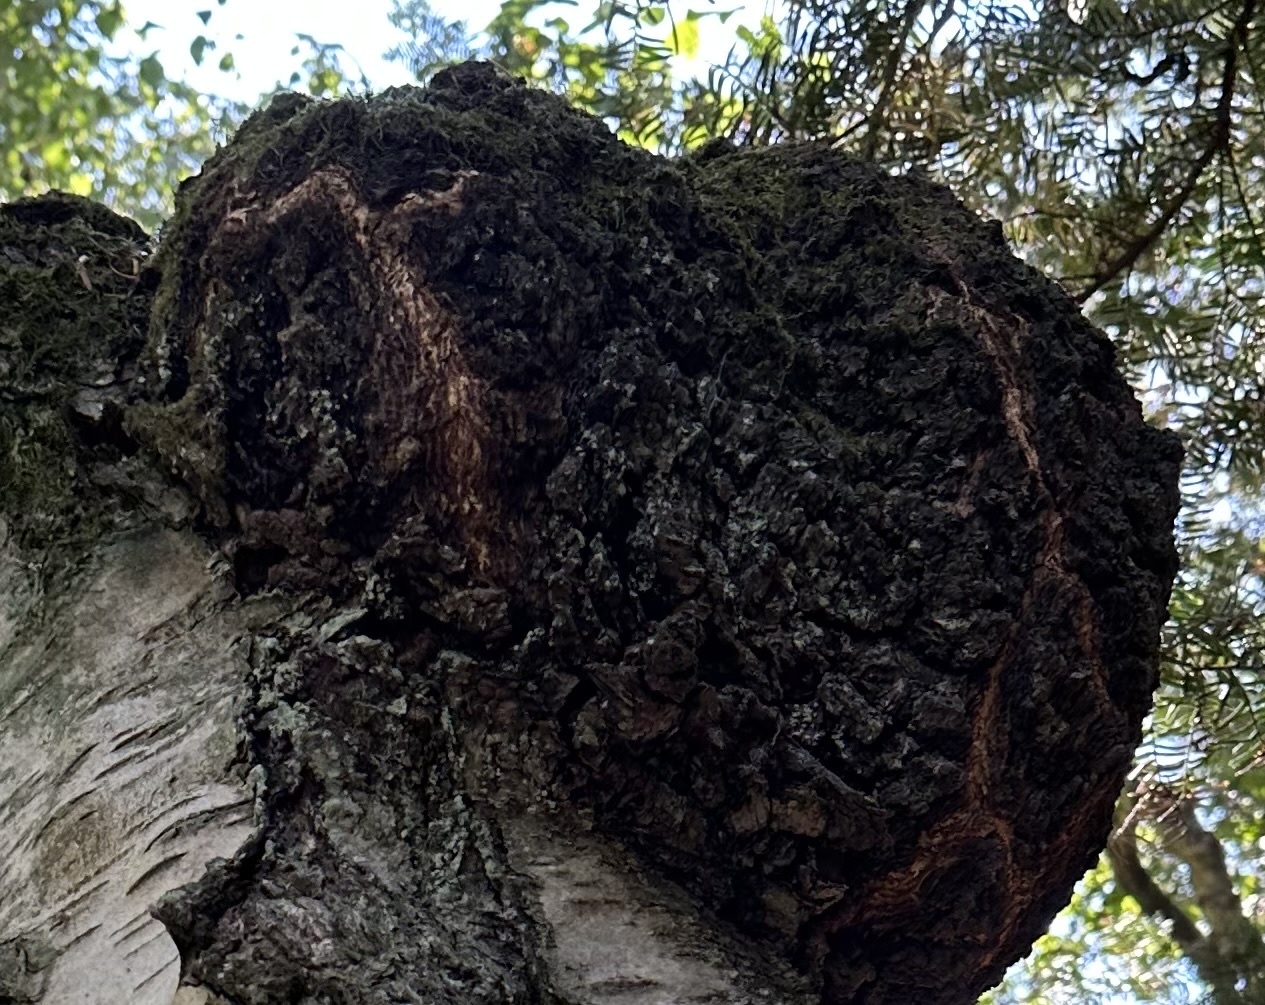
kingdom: Fungi
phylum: Basidiomycota
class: Agaricomycetes
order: Hymenochaetales
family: Hymenochaetaceae
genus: Inonotus
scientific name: Inonotus obliquus
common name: Chaga
